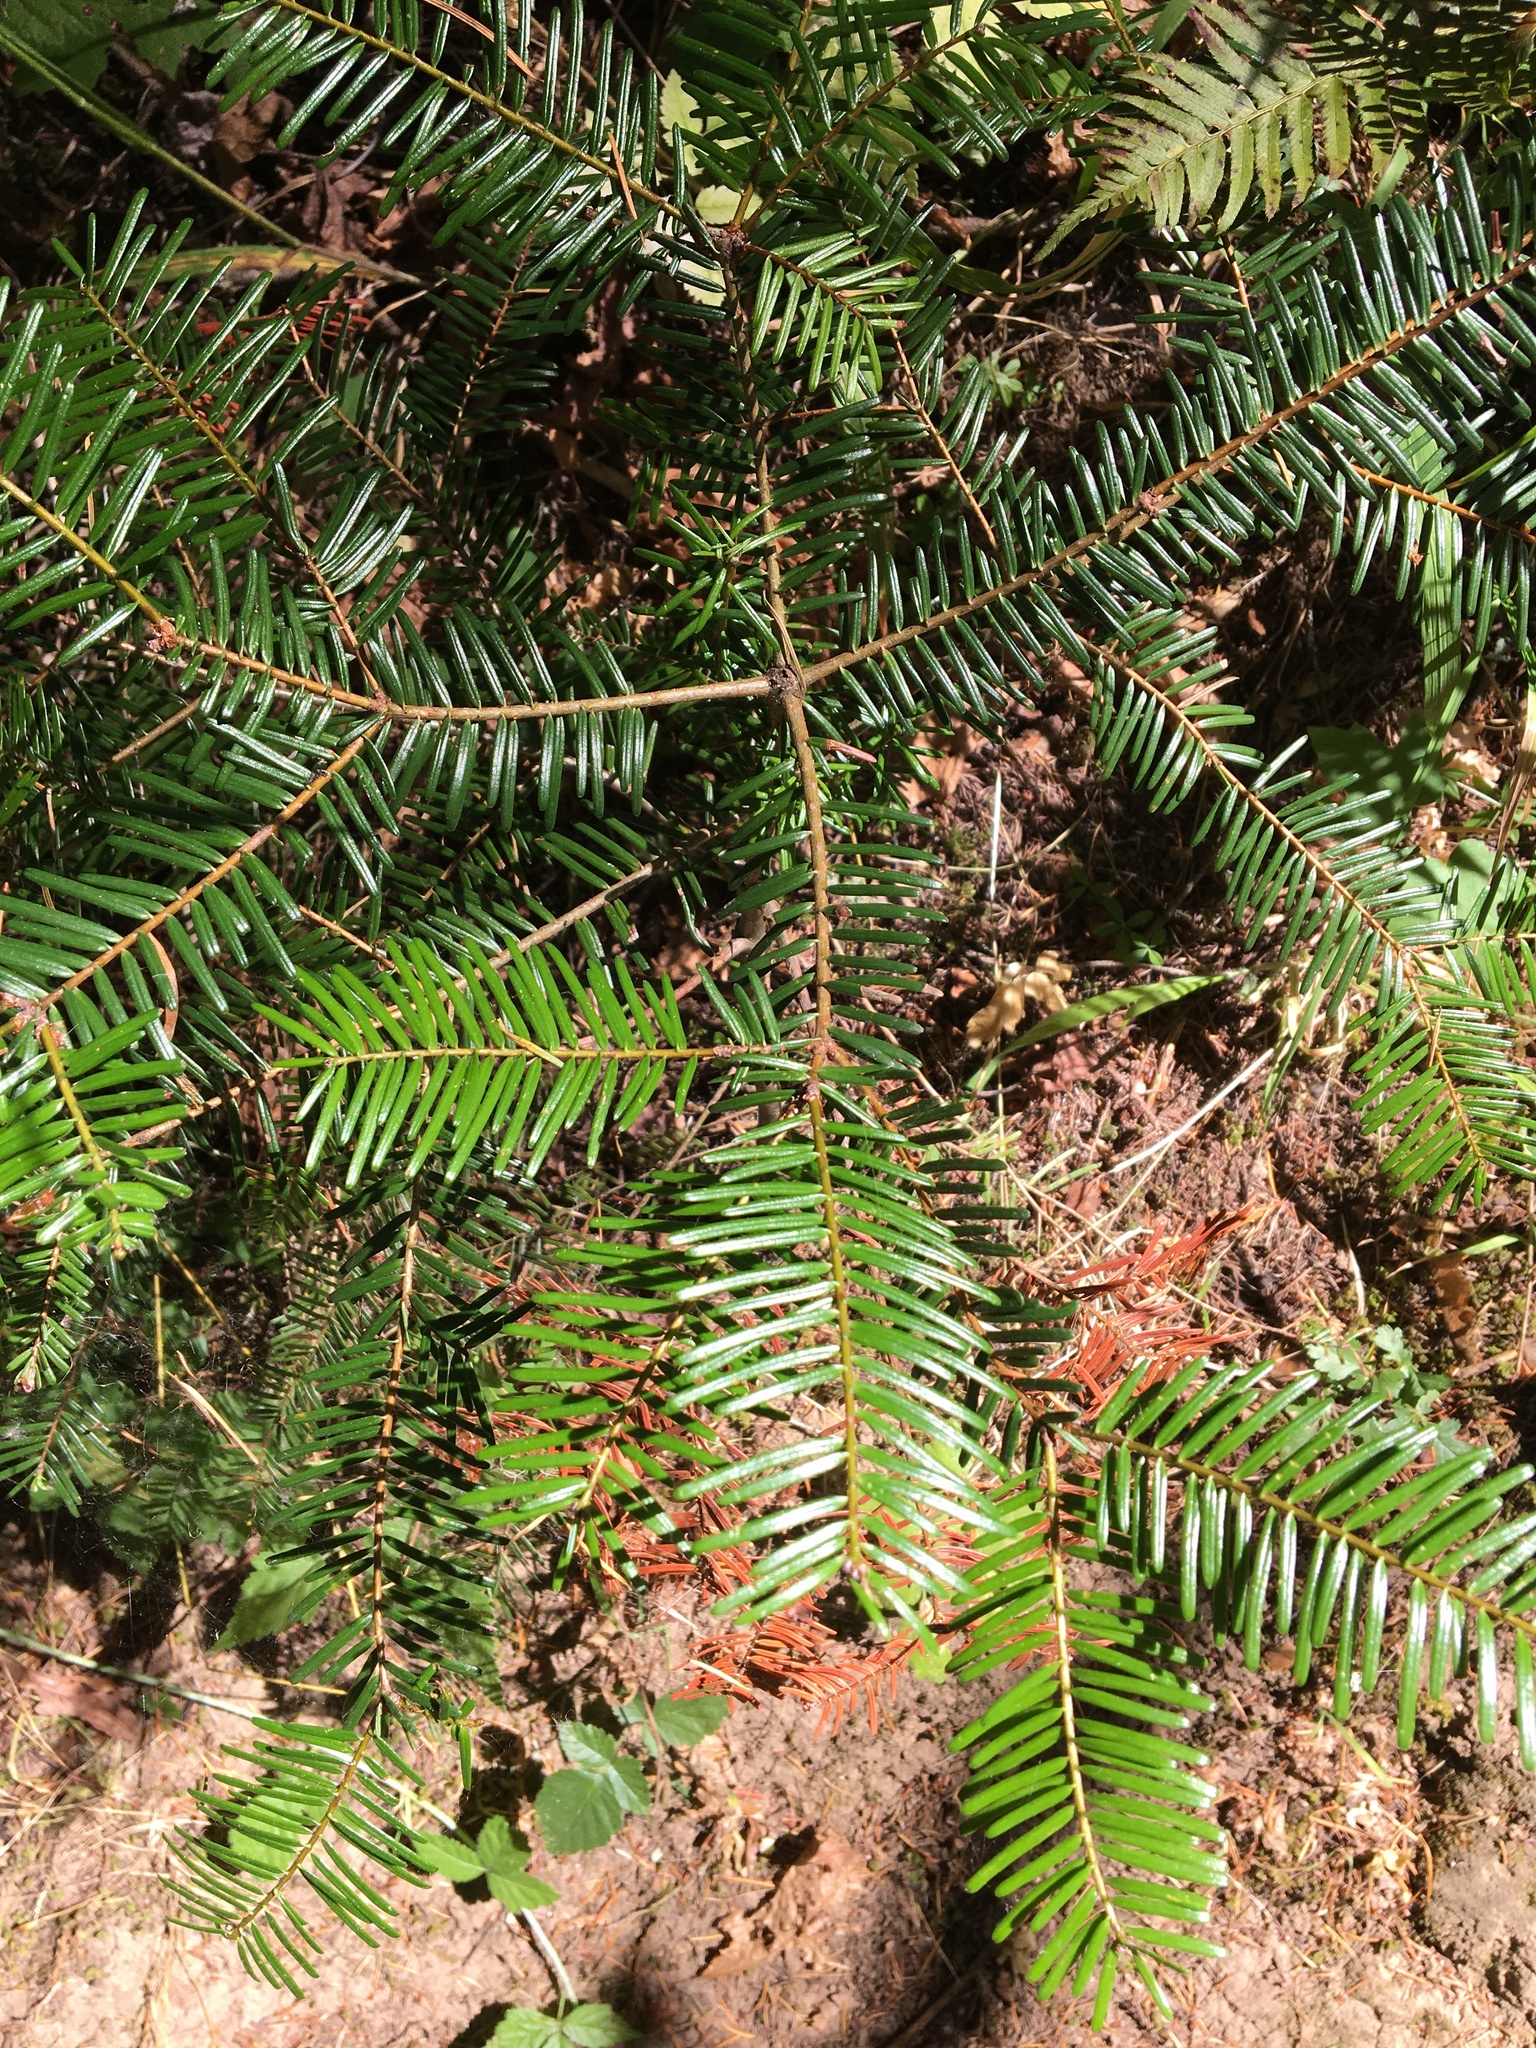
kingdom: Plantae
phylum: Tracheophyta
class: Pinopsida
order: Pinales
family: Pinaceae
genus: Abies
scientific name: Abies grandis
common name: Giant fir
